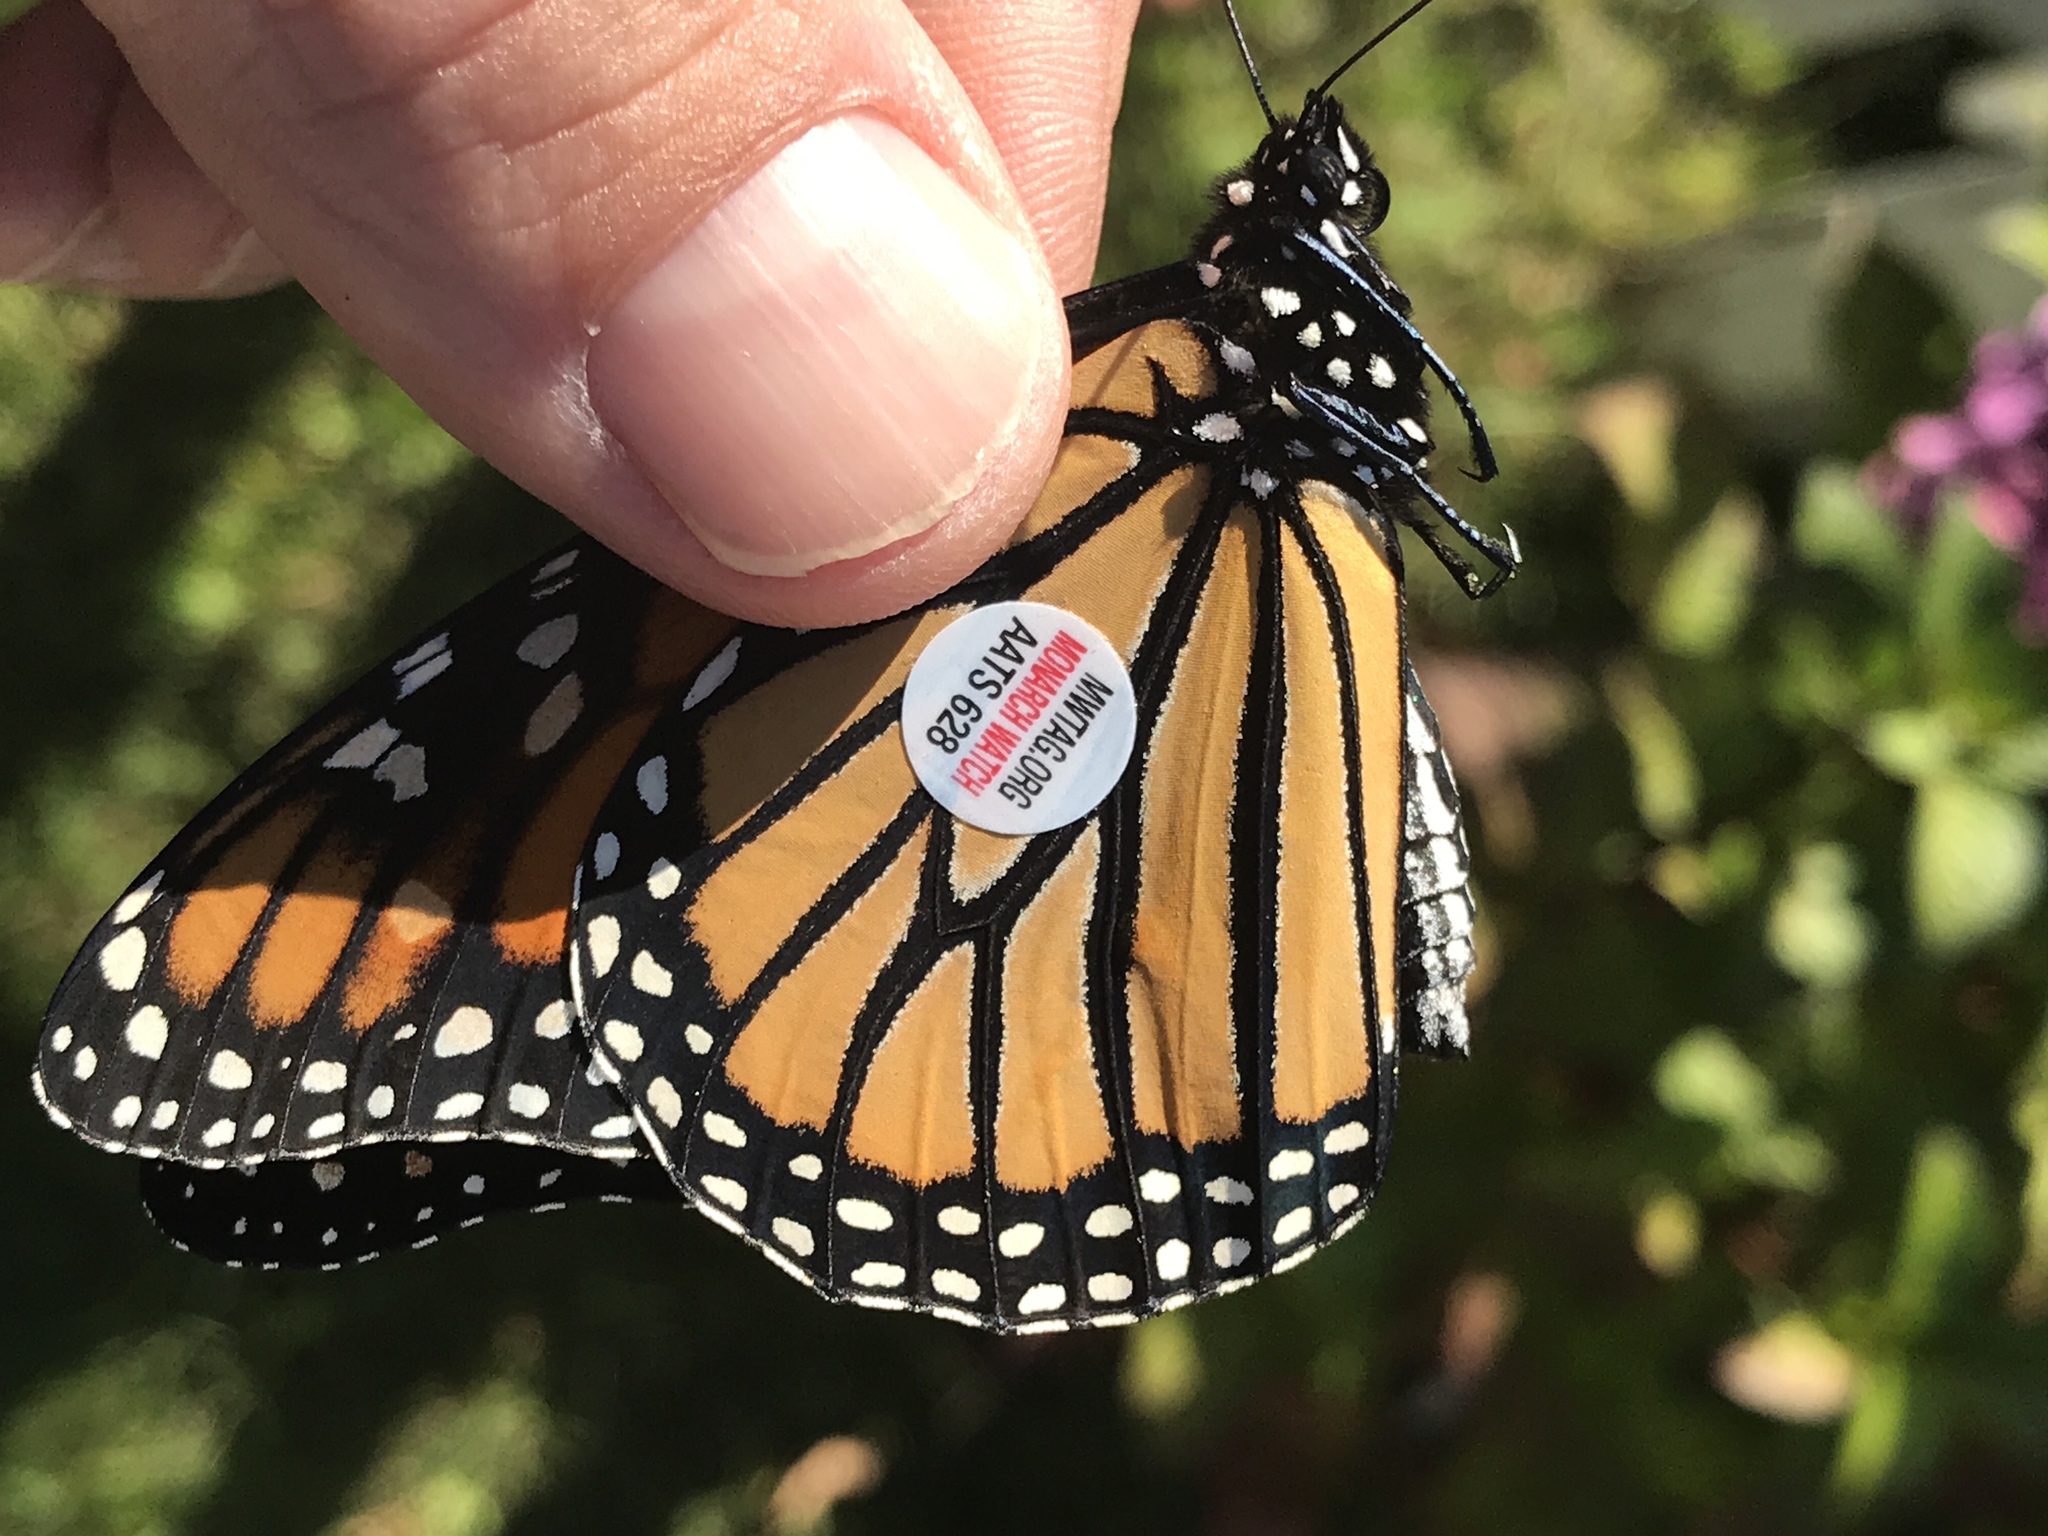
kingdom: Animalia
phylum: Arthropoda
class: Insecta
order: Lepidoptera
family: Nymphalidae
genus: Danaus
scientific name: Danaus plexippus
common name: Monarch
